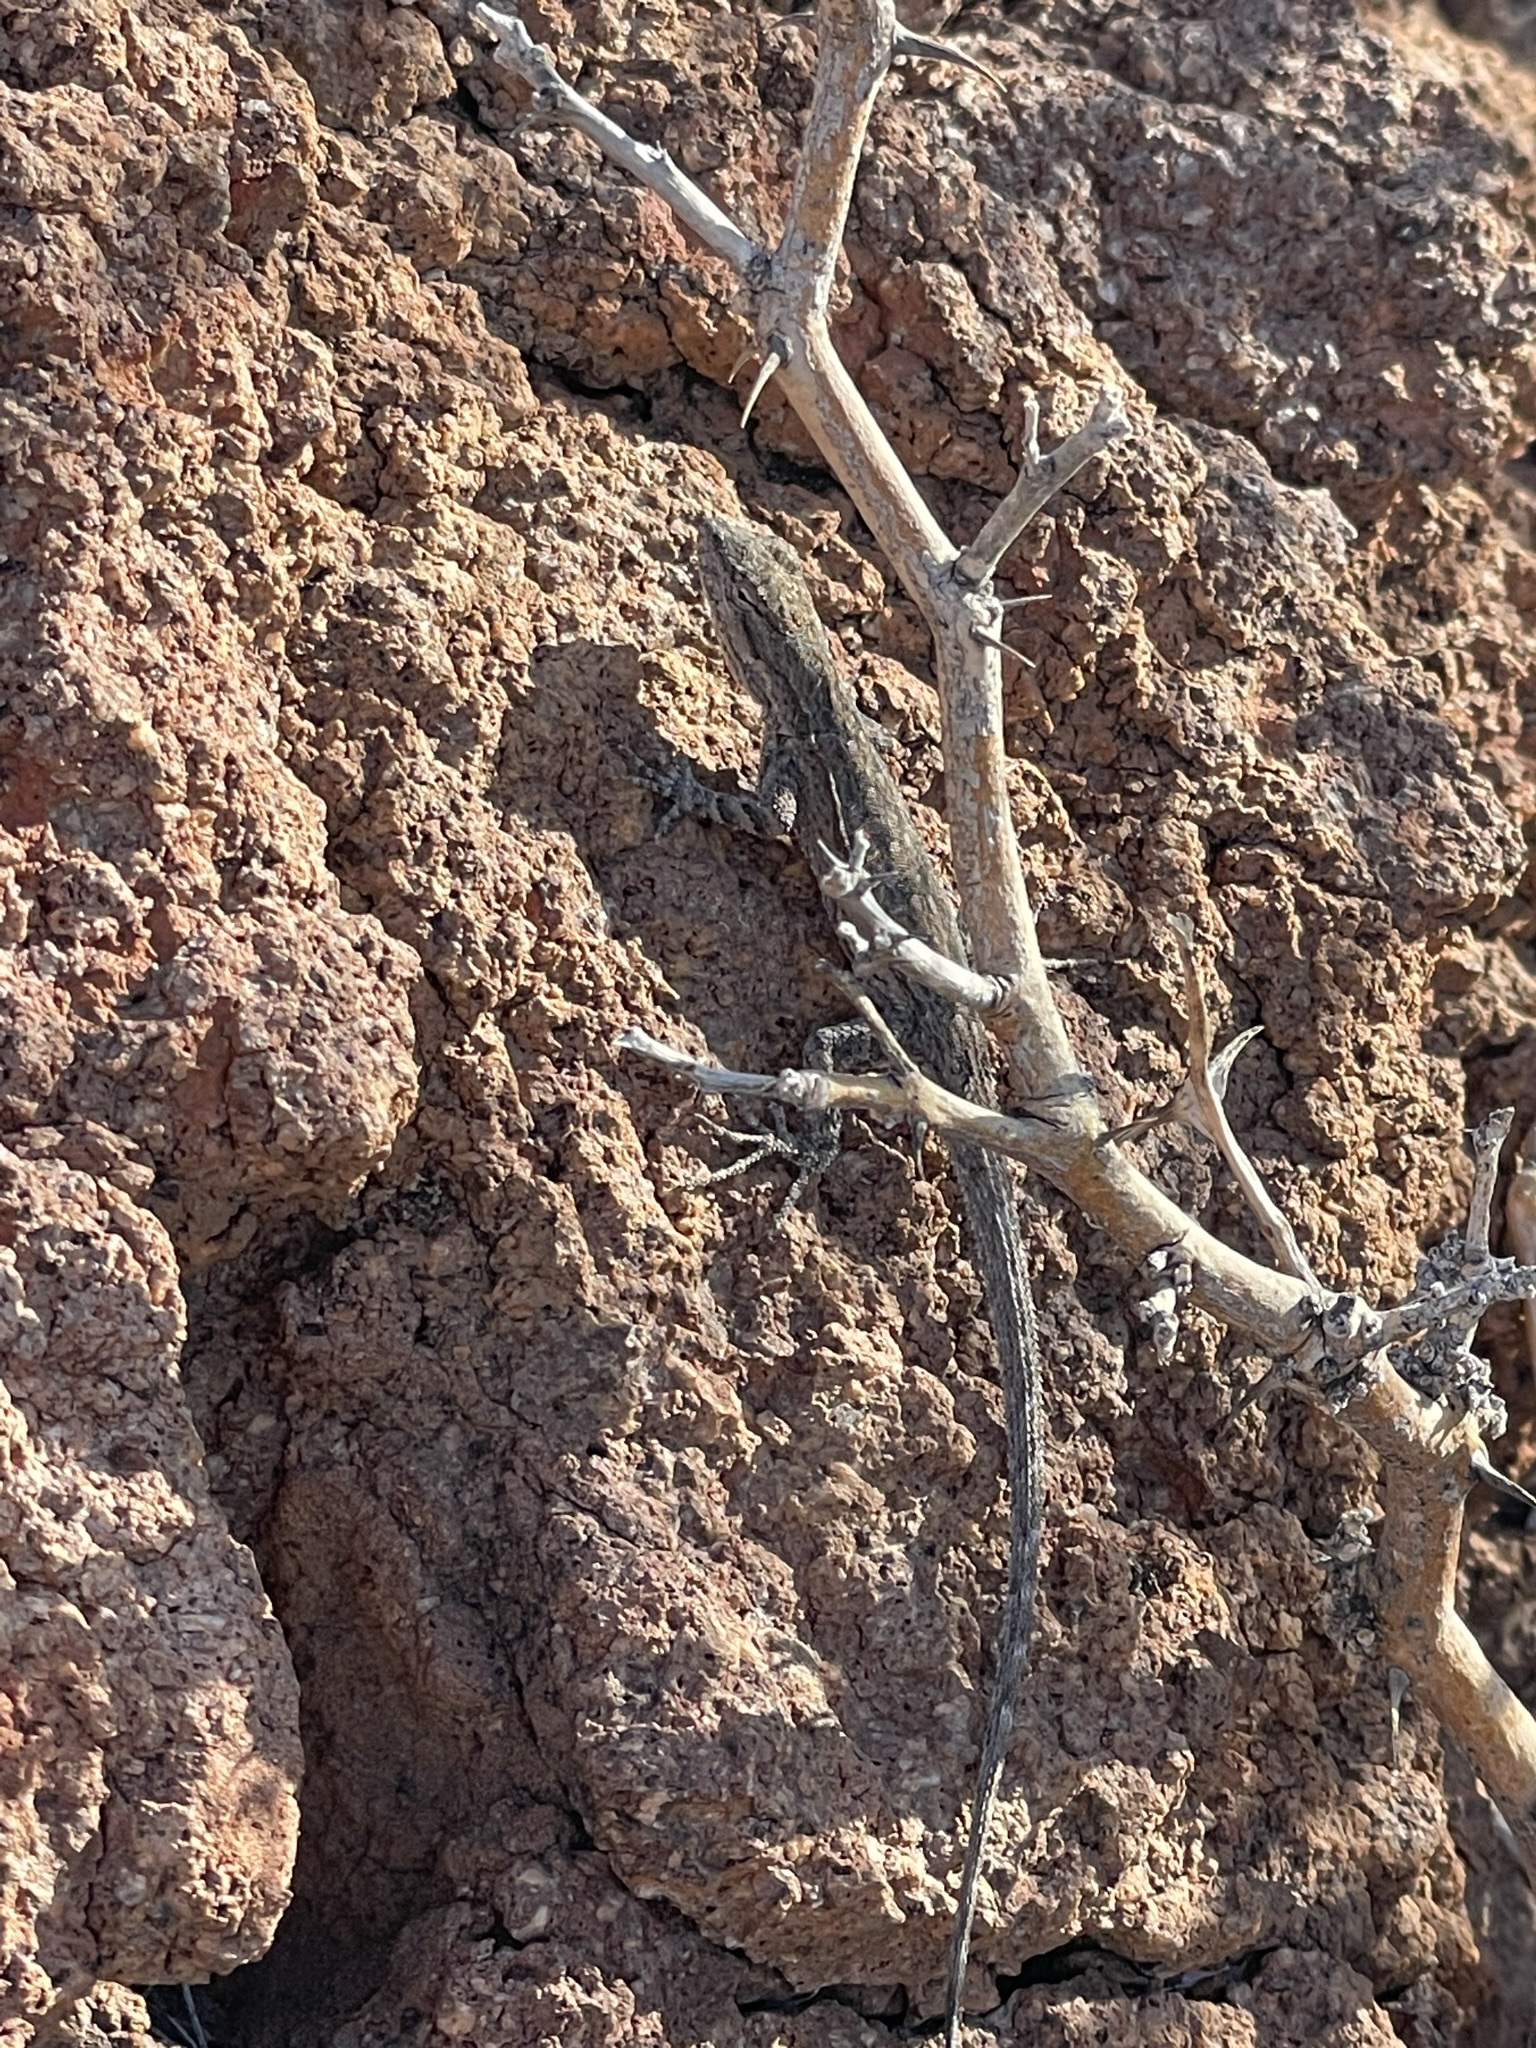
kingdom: Animalia
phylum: Chordata
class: Squamata
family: Phrynosomatidae
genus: Urosaurus
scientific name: Urosaurus nigricauda
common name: Baja california brush lizard
